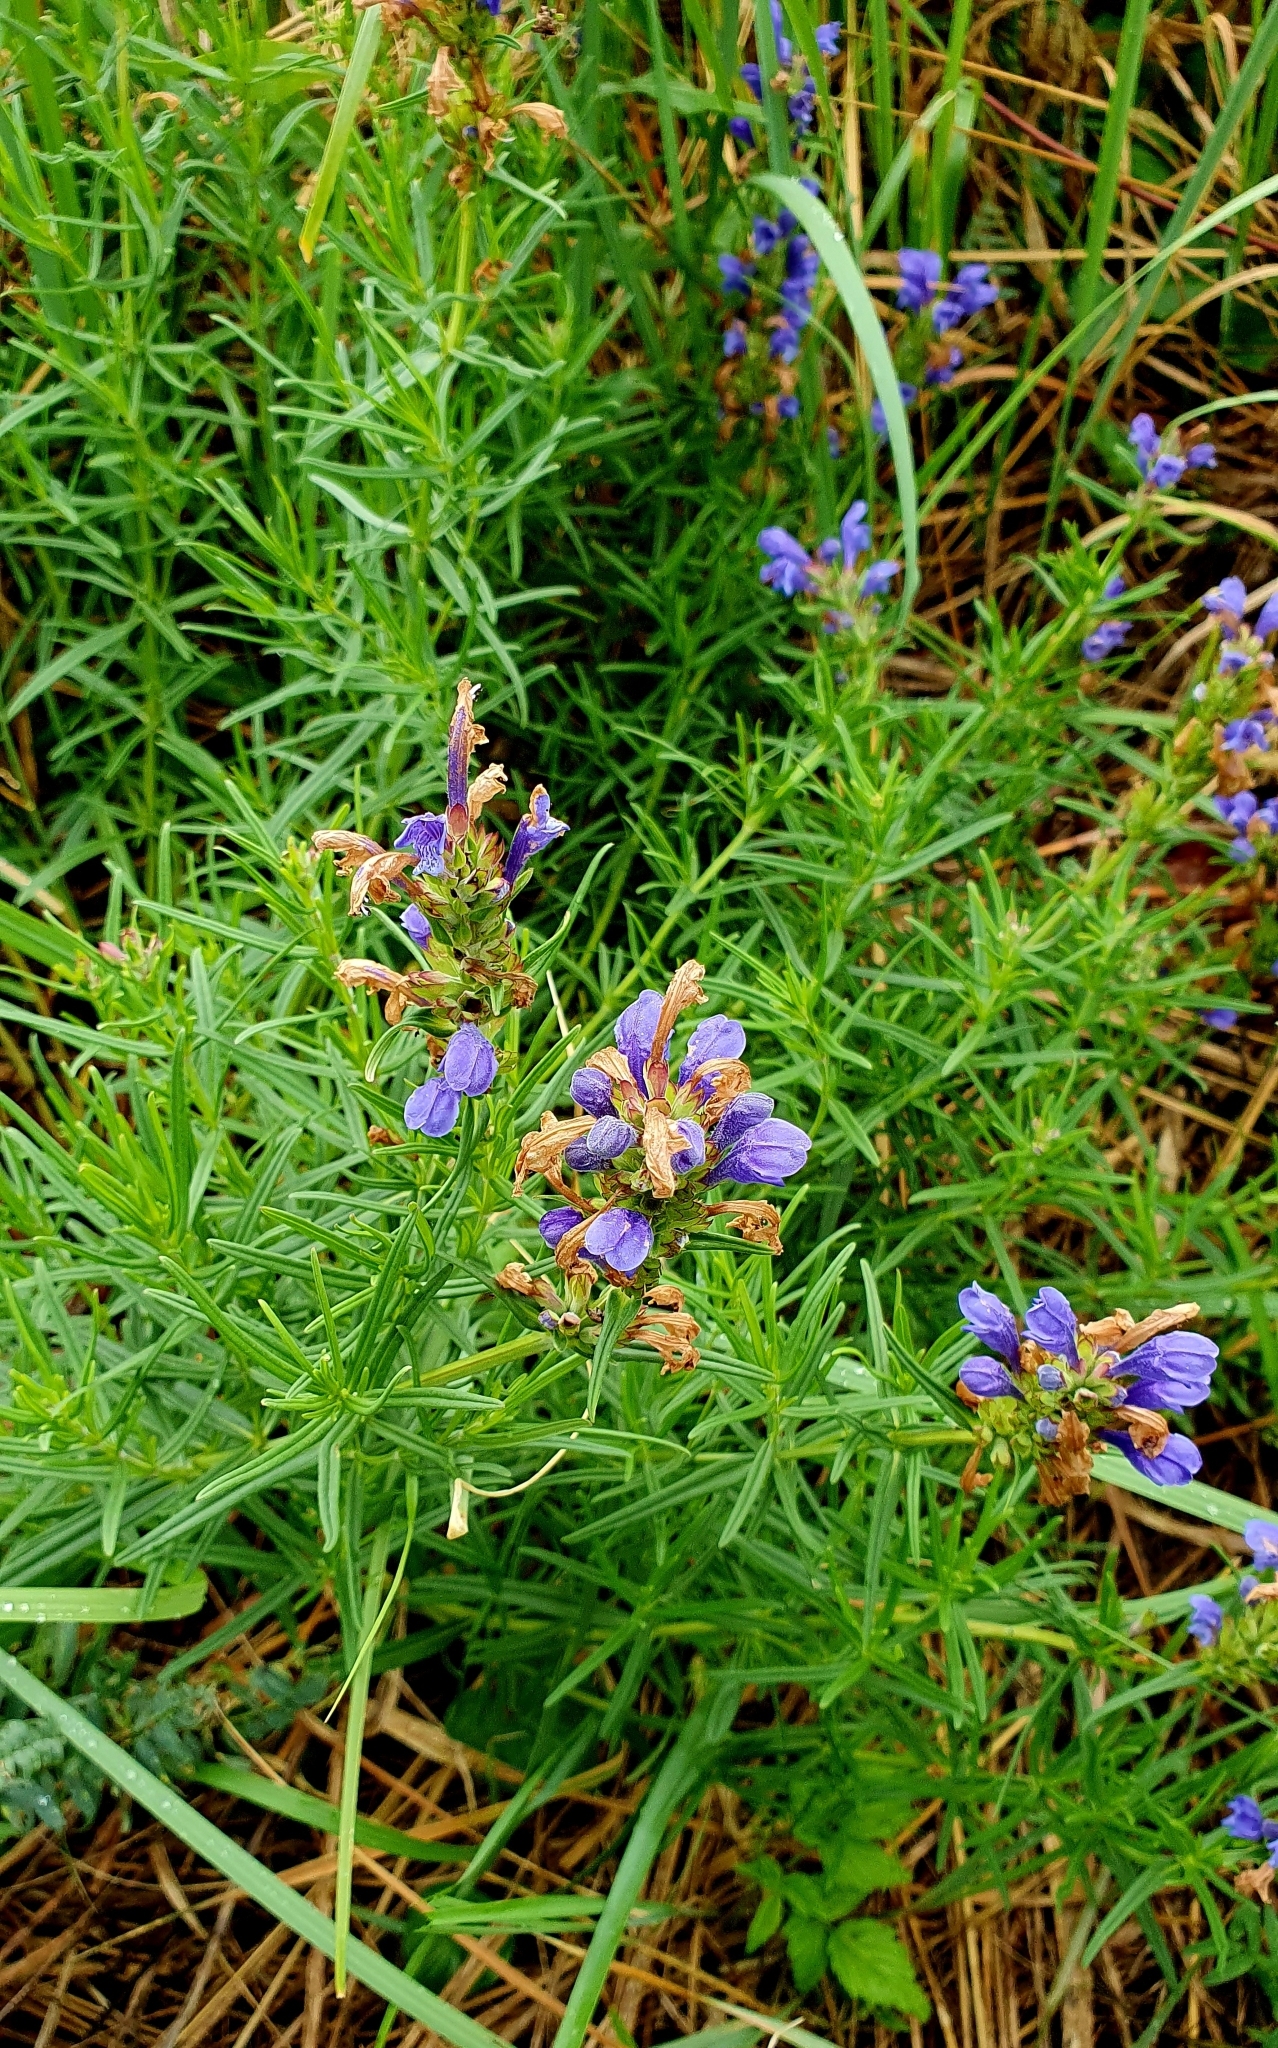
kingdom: Plantae
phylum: Tracheophyta
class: Magnoliopsida
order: Lamiales
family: Lamiaceae
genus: Dracocephalum
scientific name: Dracocephalum ruyschiana
